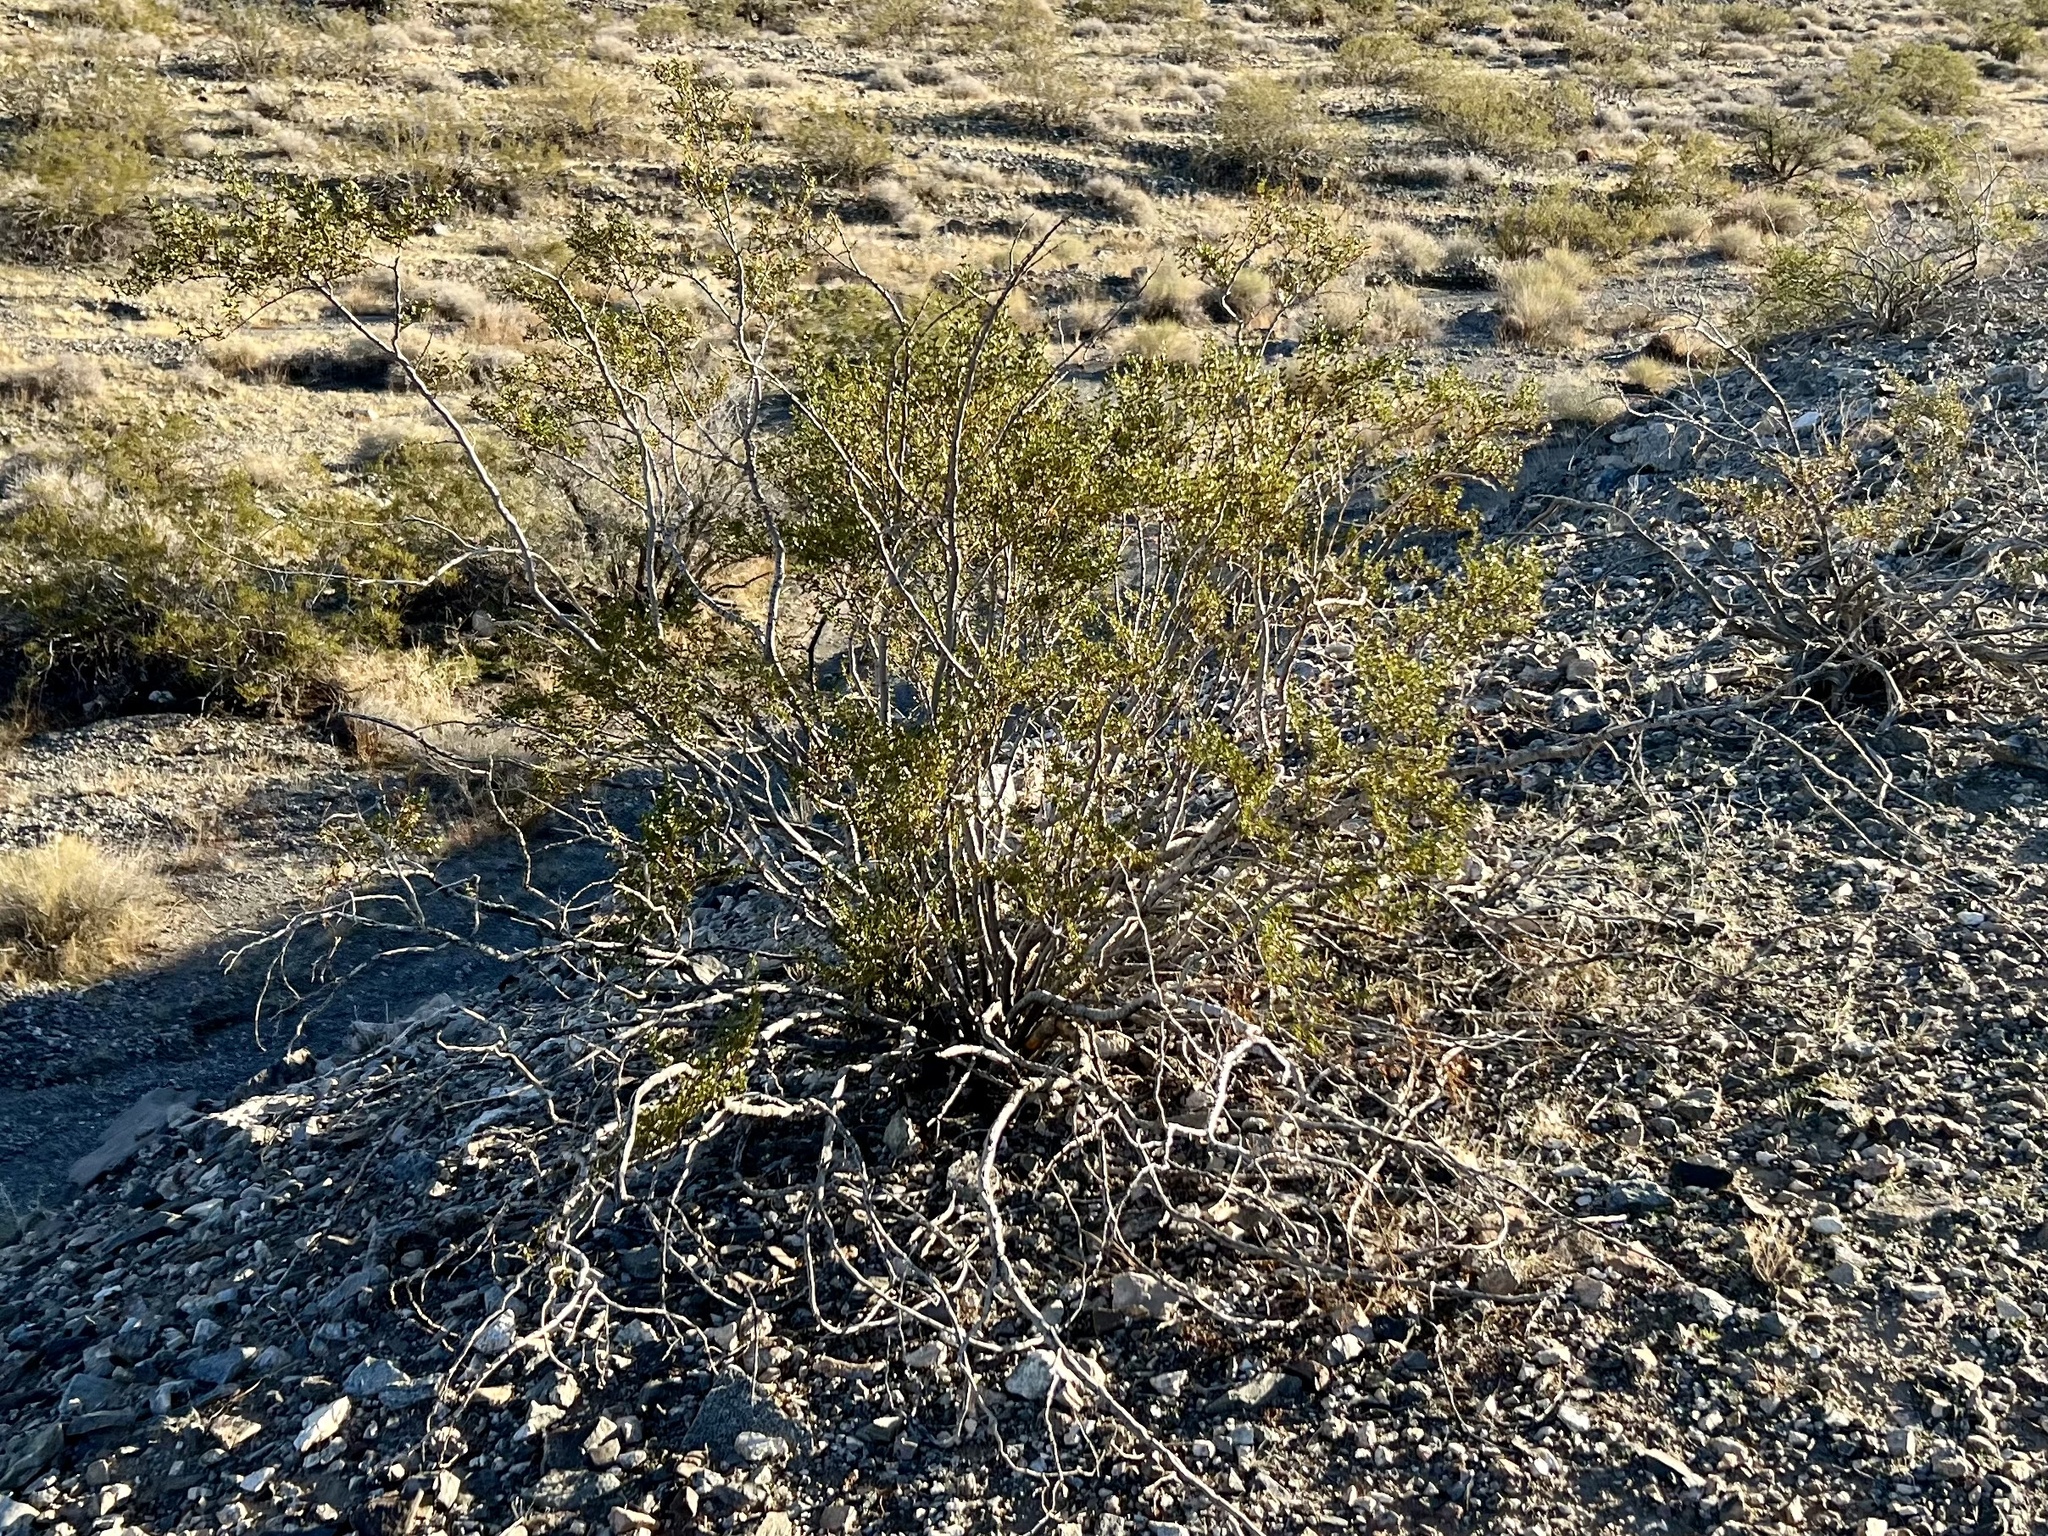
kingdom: Plantae
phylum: Tracheophyta
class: Magnoliopsida
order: Zygophyllales
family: Zygophyllaceae
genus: Larrea
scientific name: Larrea tridentata
